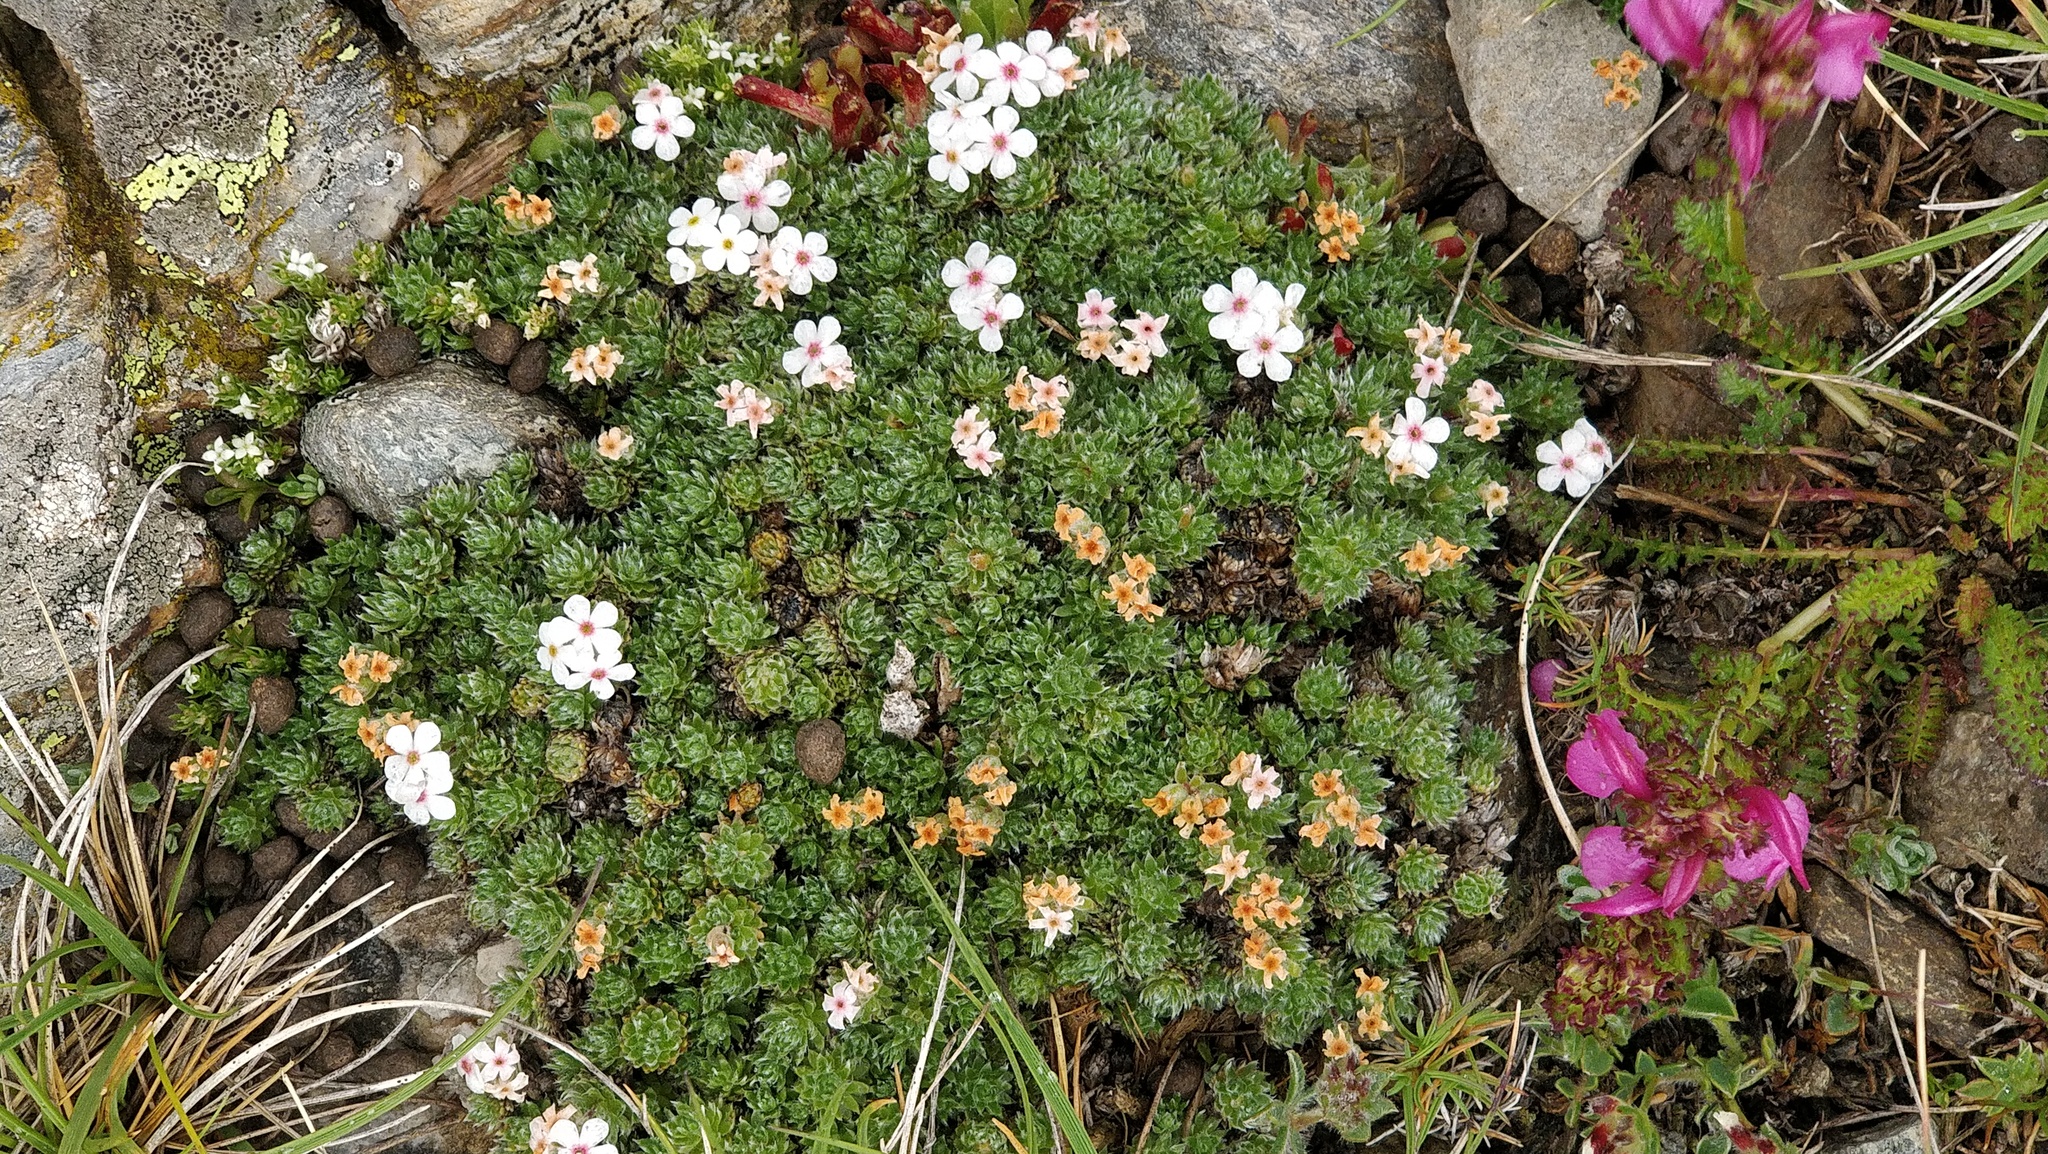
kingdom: Plantae
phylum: Tracheophyta
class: Magnoliopsida
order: Ericales
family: Primulaceae
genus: Androsace
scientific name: Androsace villosa
